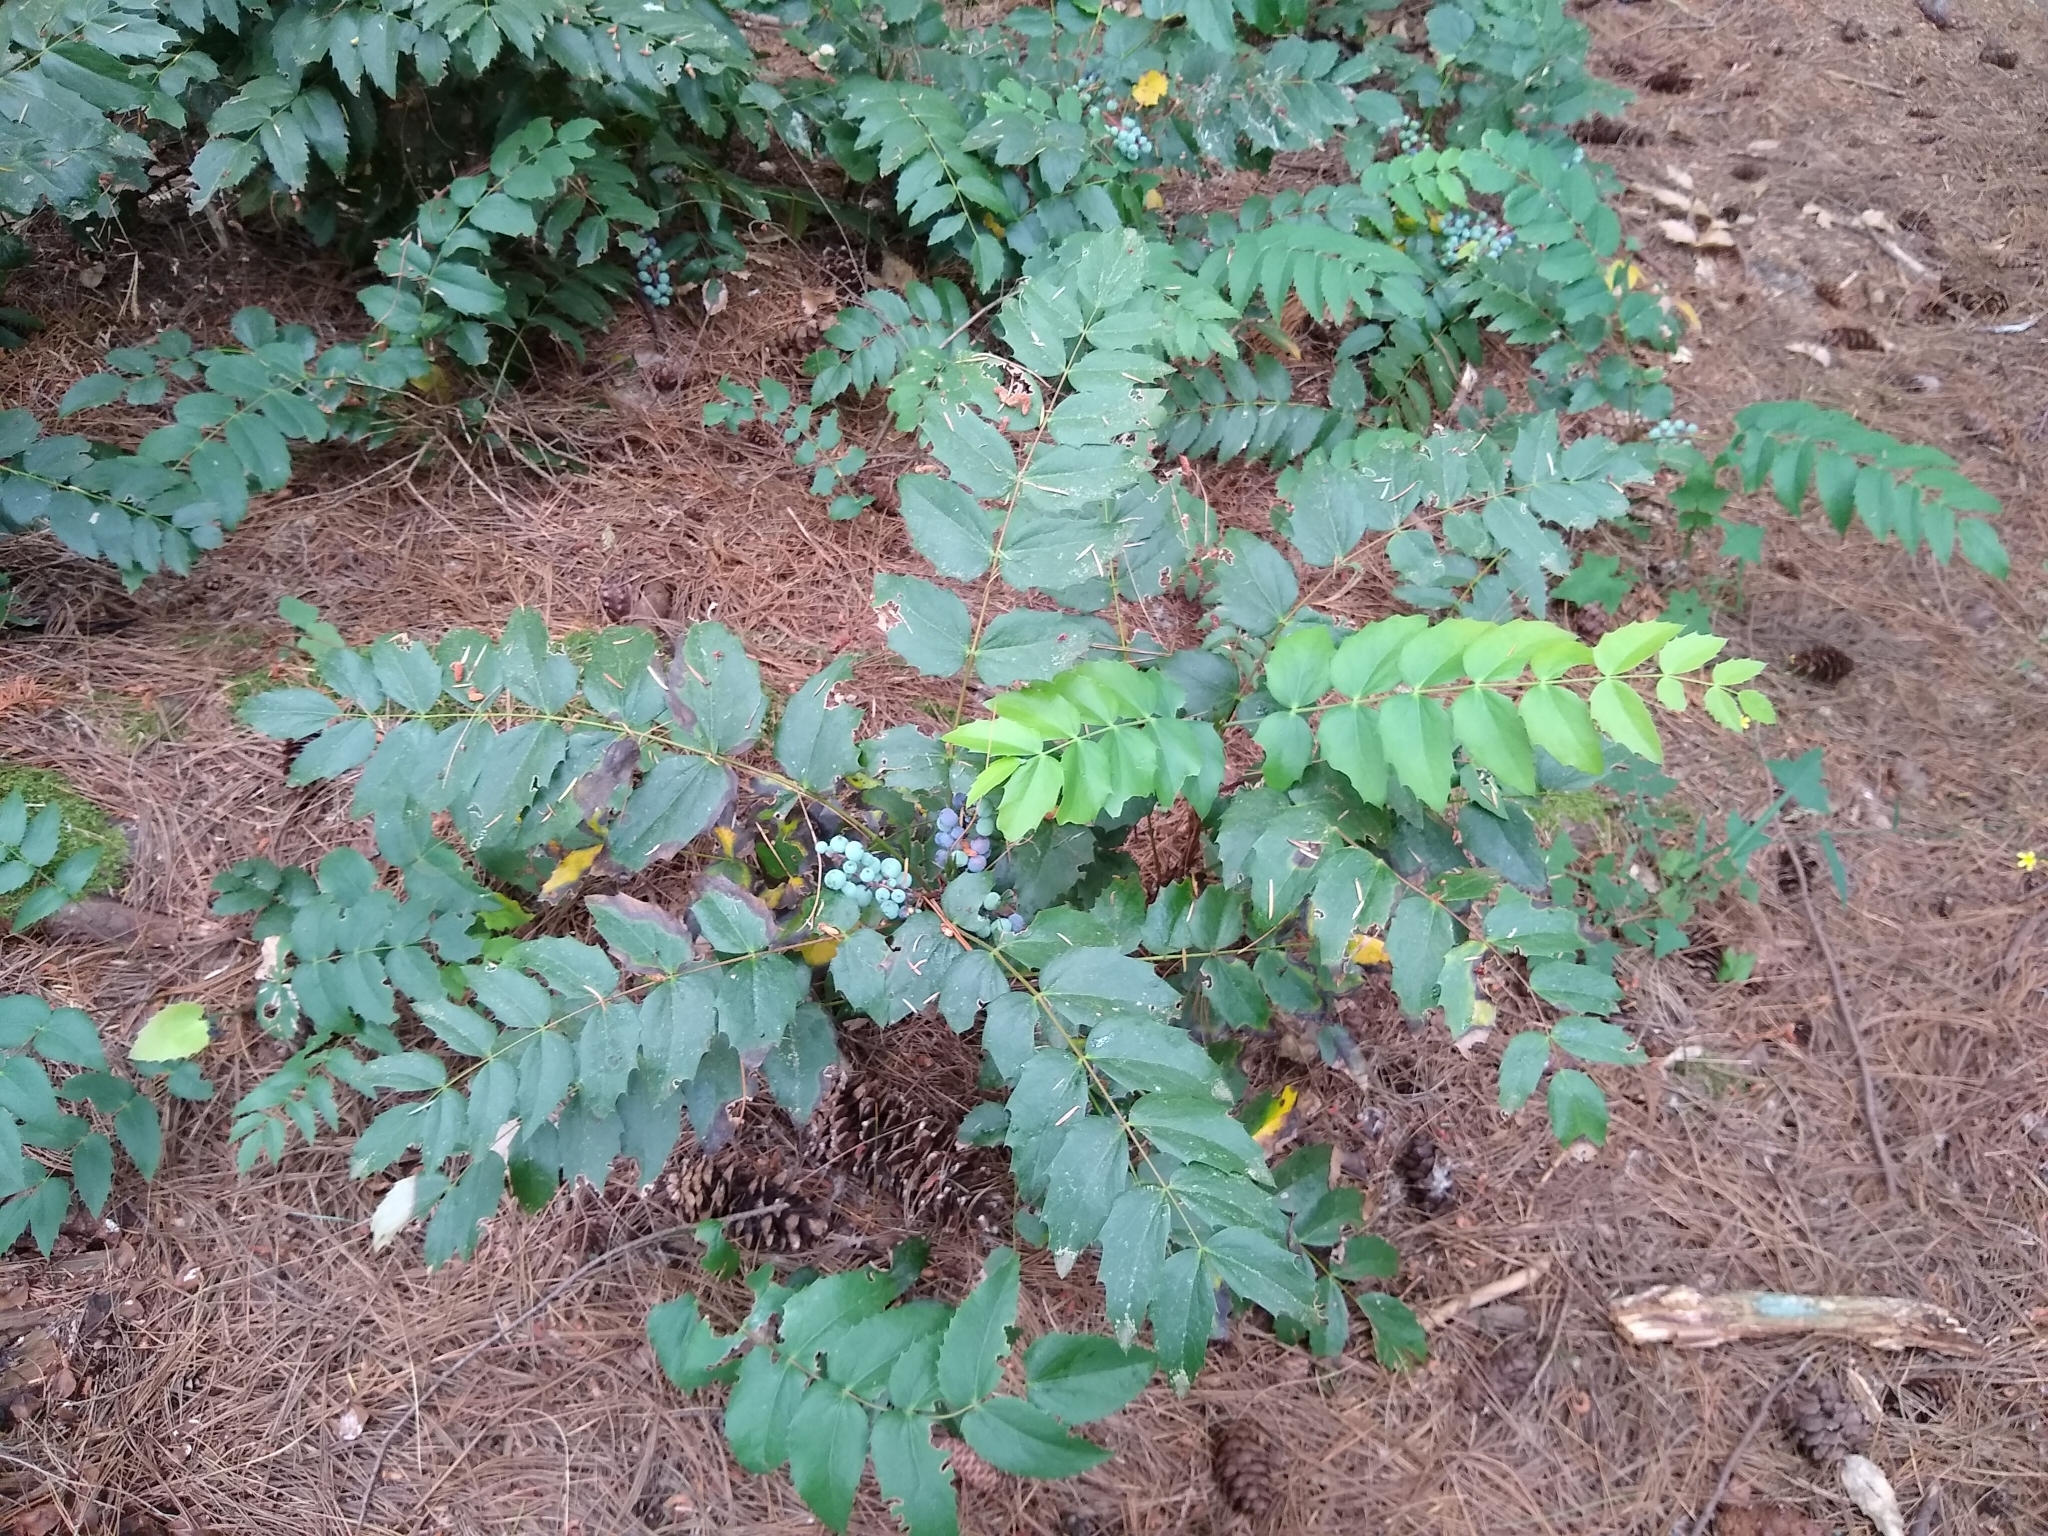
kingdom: Plantae
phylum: Tracheophyta
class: Magnoliopsida
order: Ranunculales
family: Berberidaceae
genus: Mahonia
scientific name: Mahonia nervosa
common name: Cascade oregon-grape
